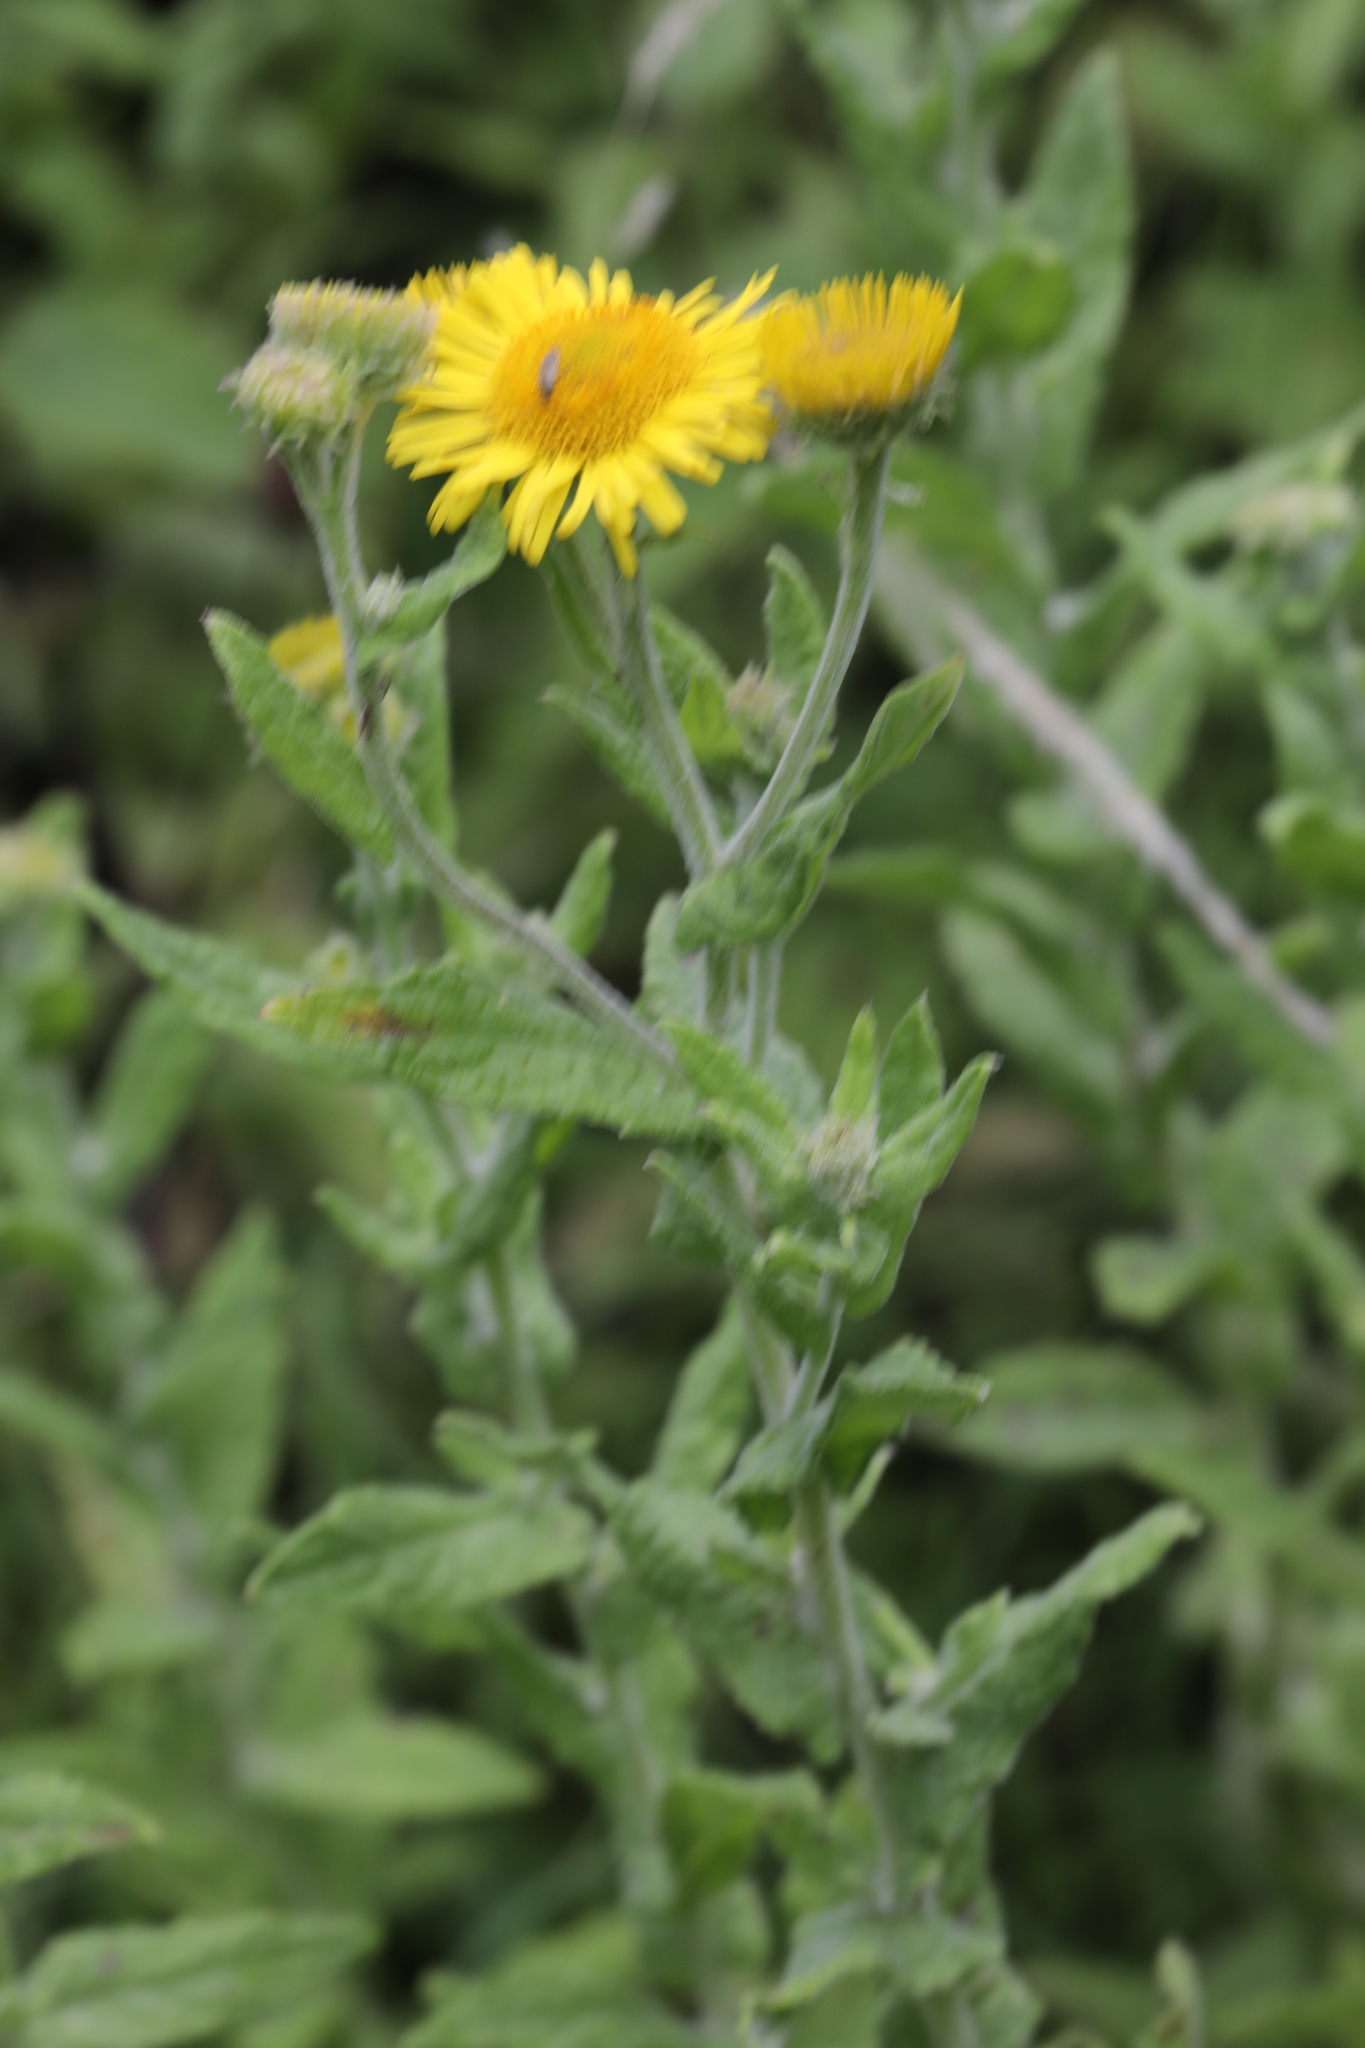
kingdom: Plantae
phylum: Tracheophyta
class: Magnoliopsida
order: Asterales
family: Asteraceae
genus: Pulicaria
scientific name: Pulicaria dysenterica
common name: Common fleabane
